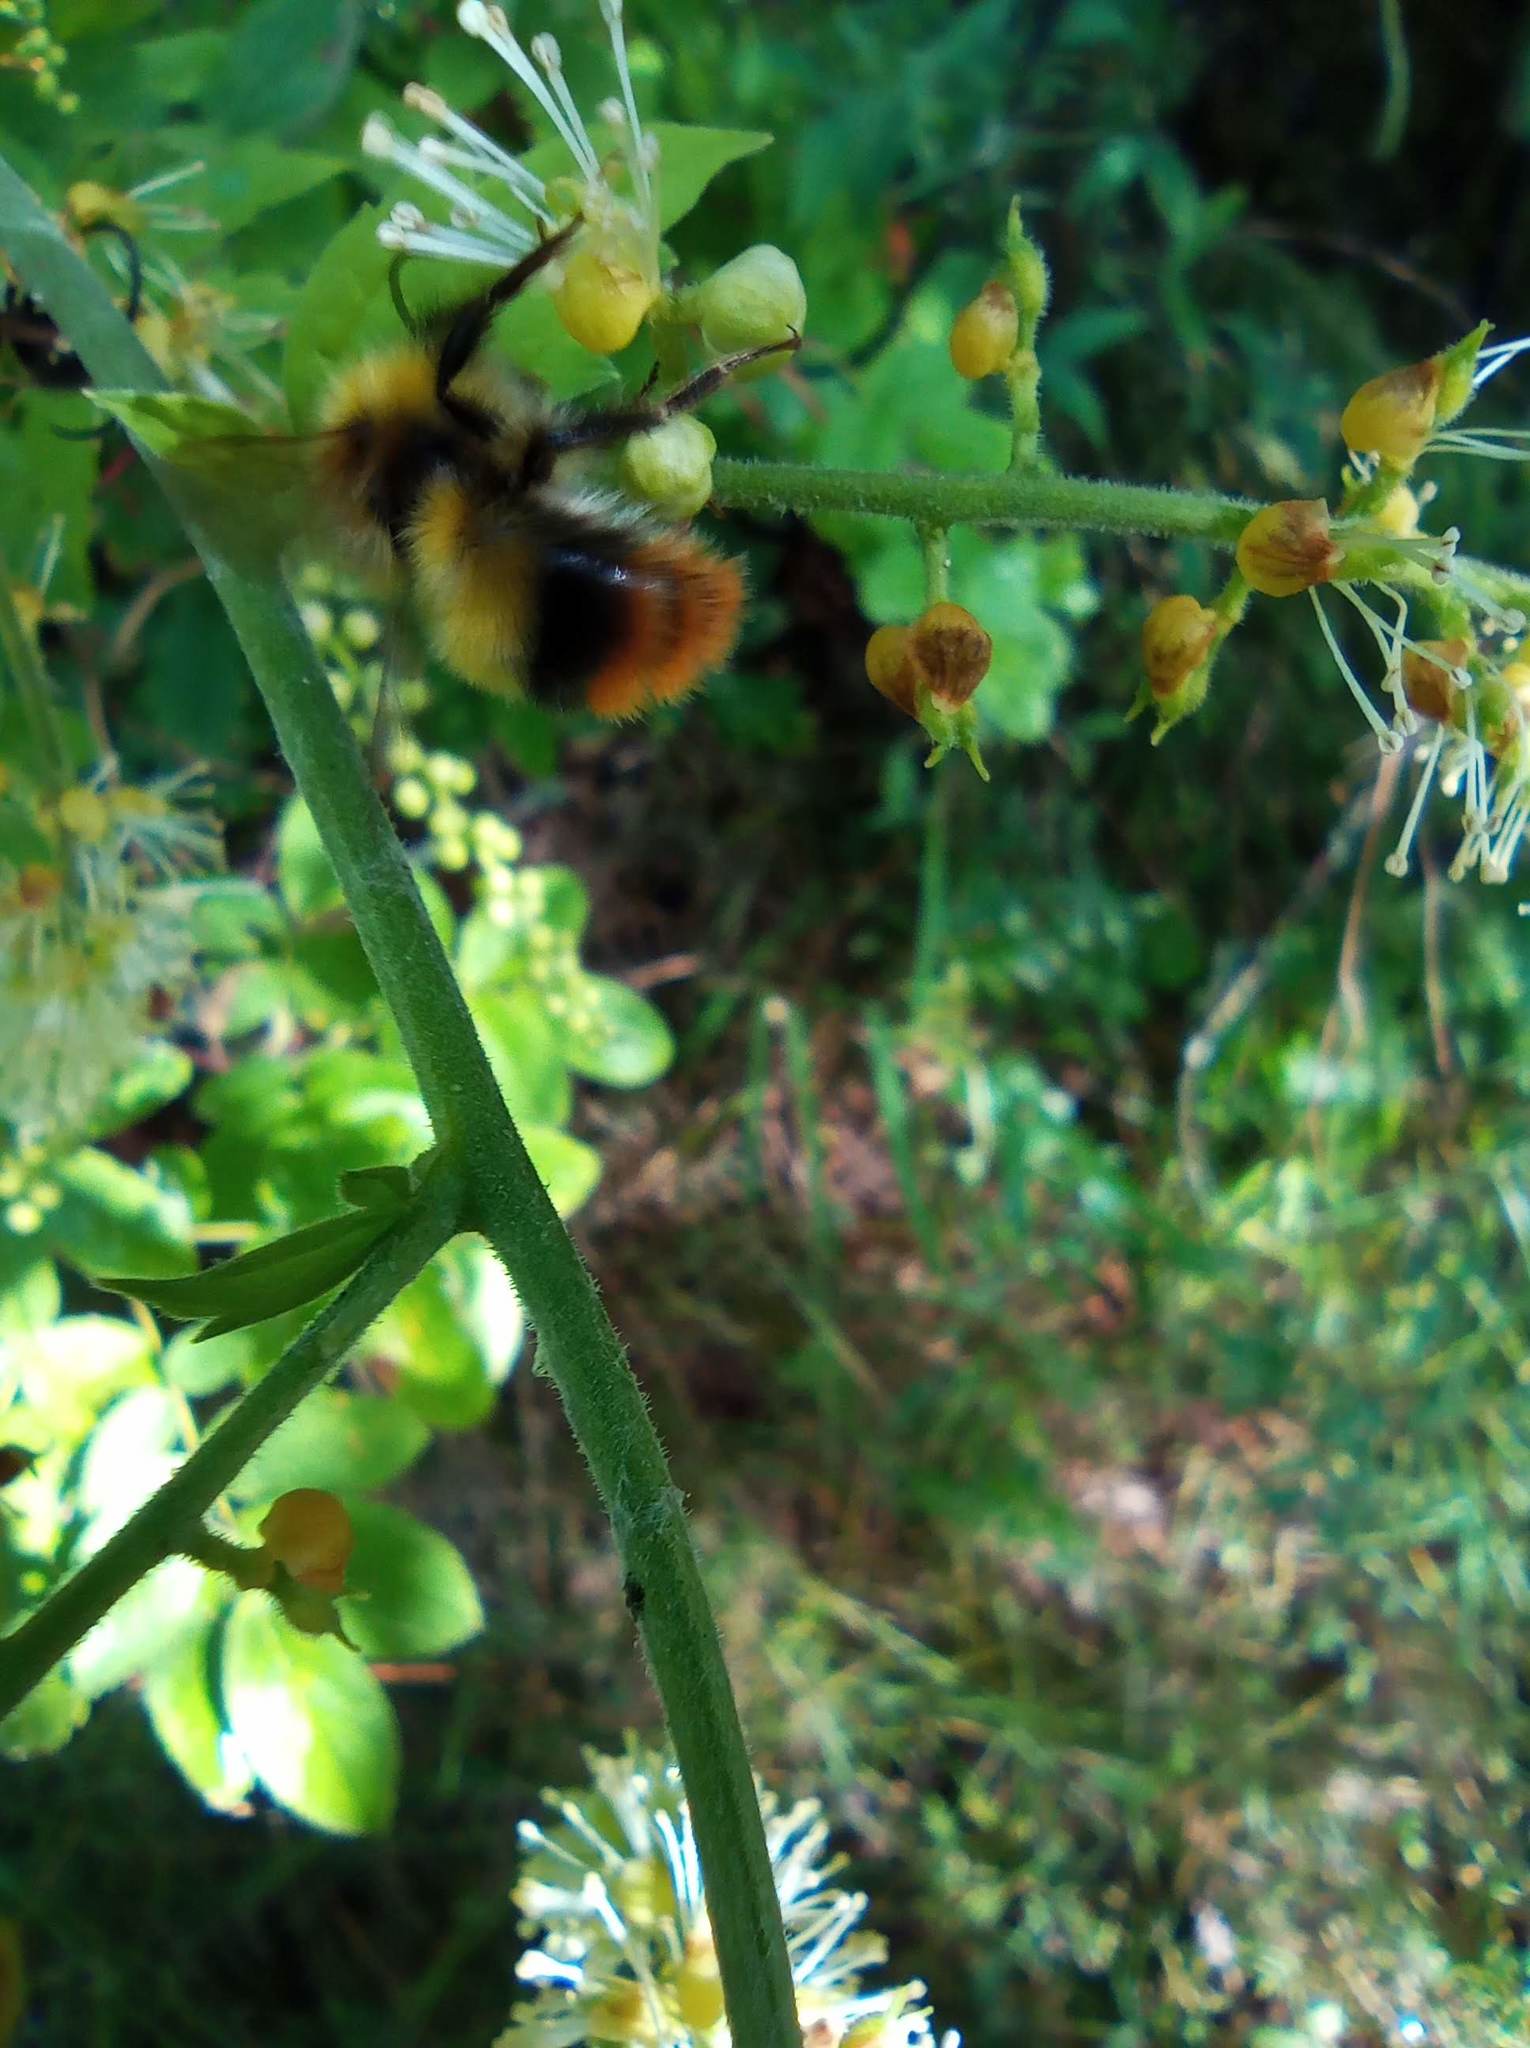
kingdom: Animalia
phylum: Arthropoda
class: Insecta
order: Hymenoptera
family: Apidae
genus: Bombus
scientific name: Bombus rupestris
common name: Hill cuckoo-bee
